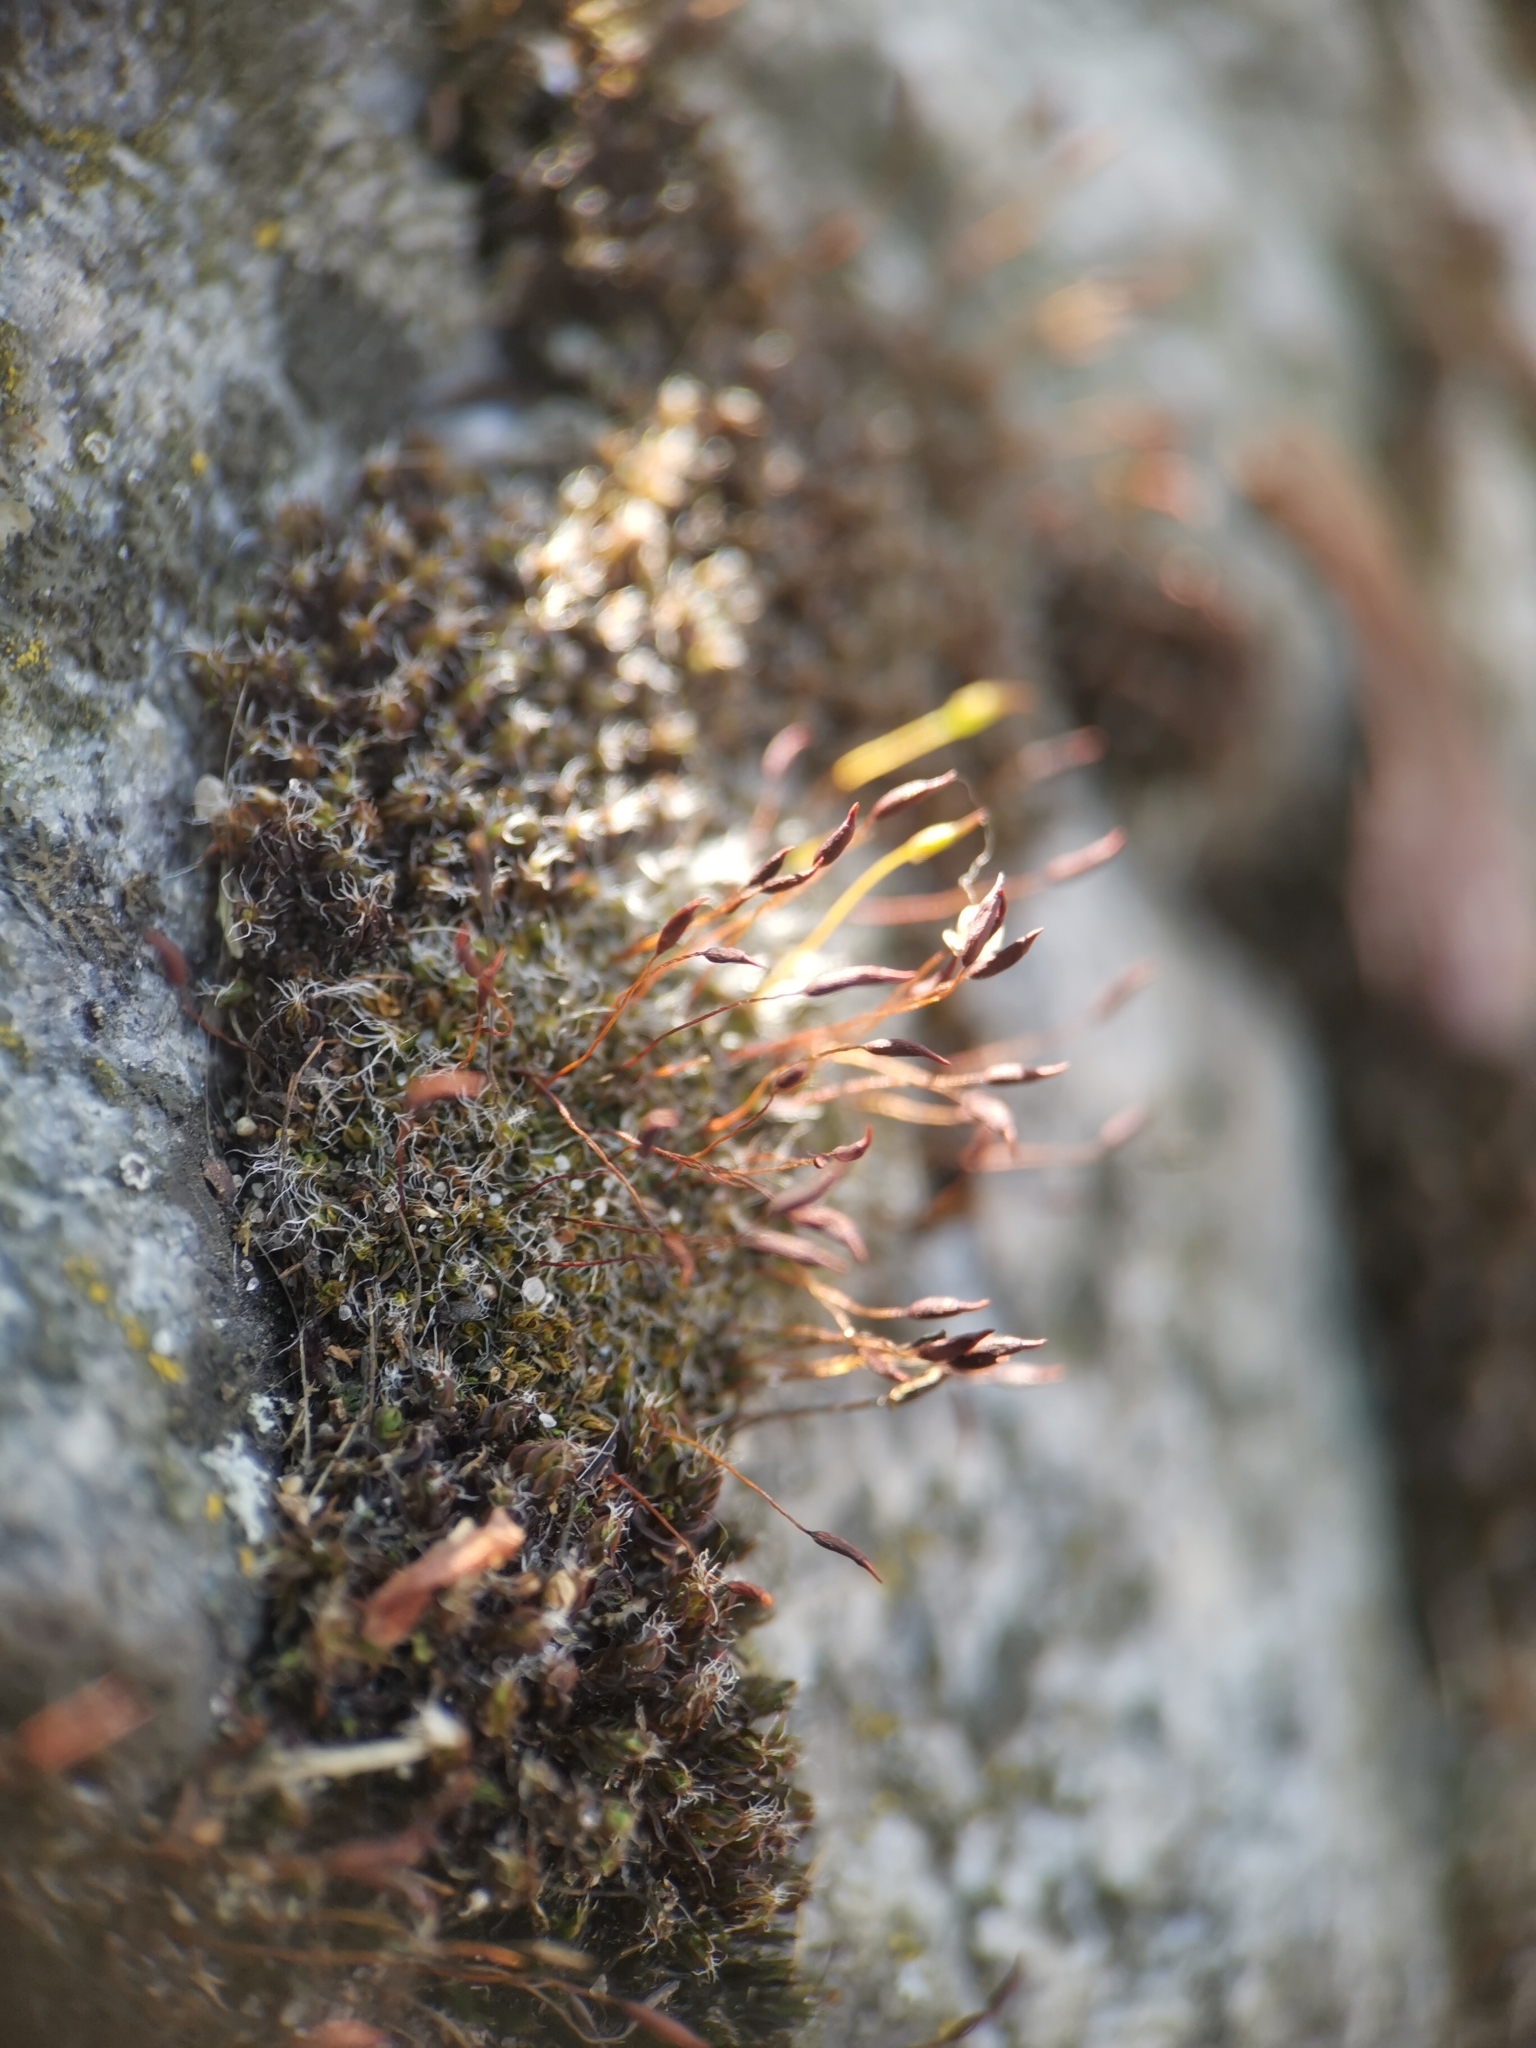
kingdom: Plantae
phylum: Bryophyta
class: Bryopsida
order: Pottiales
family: Pottiaceae
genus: Tortula
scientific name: Tortula muralis
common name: Wall screw-moss
